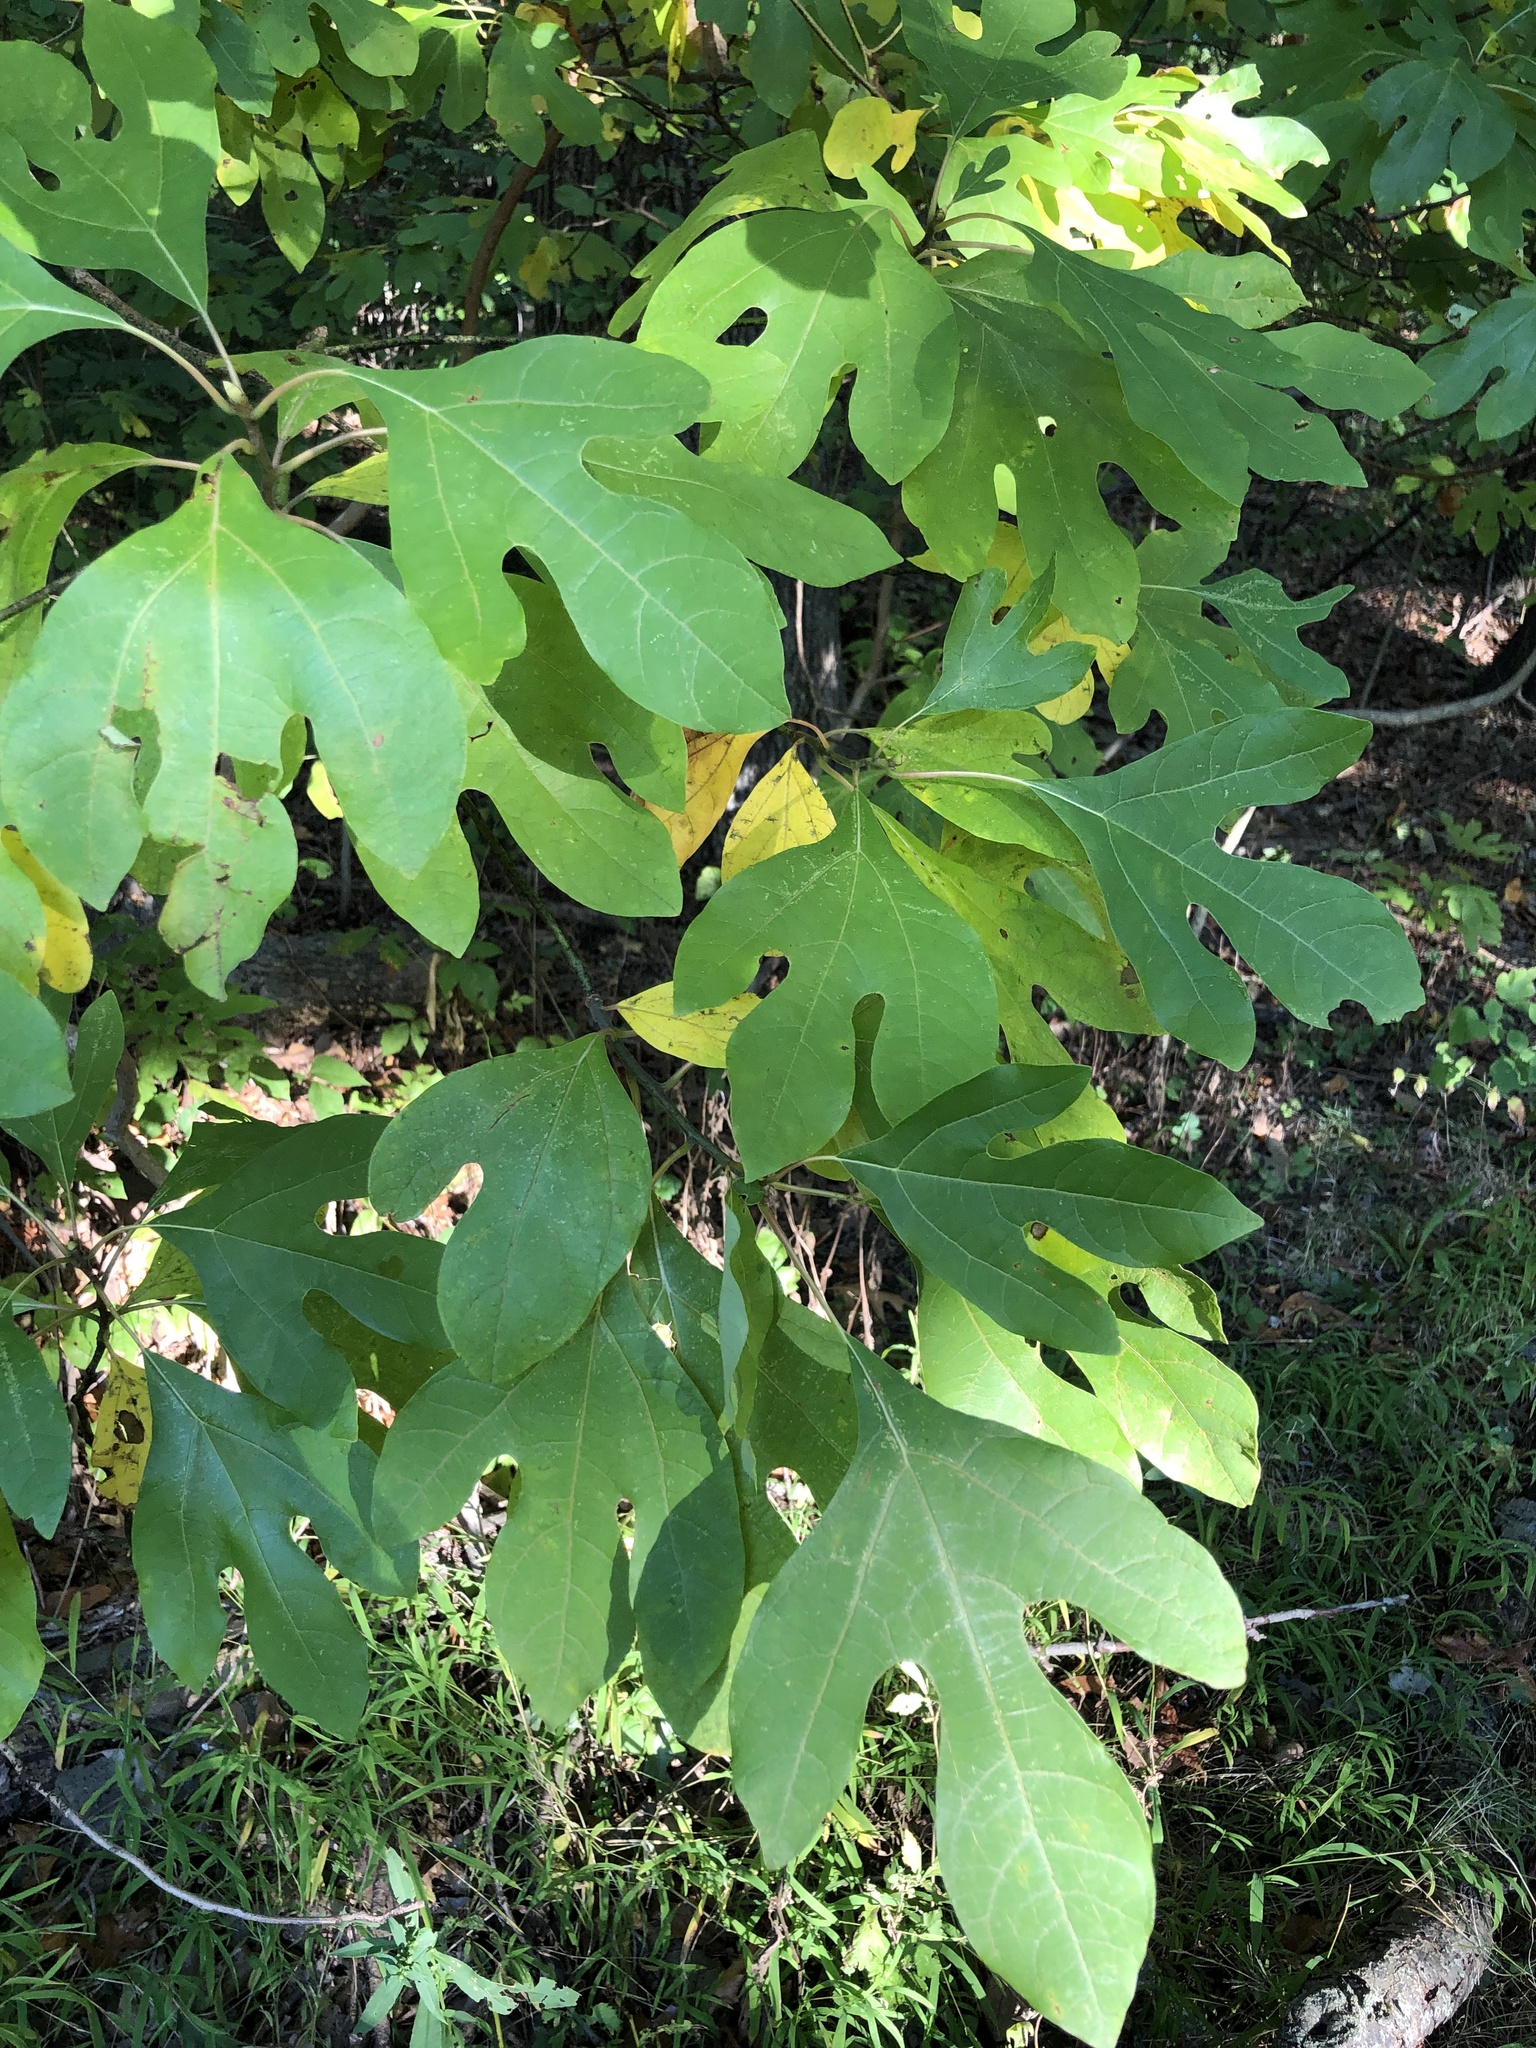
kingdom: Plantae
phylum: Tracheophyta
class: Magnoliopsida
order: Laurales
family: Lauraceae
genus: Sassafras
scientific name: Sassafras albidum
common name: Sassafras
